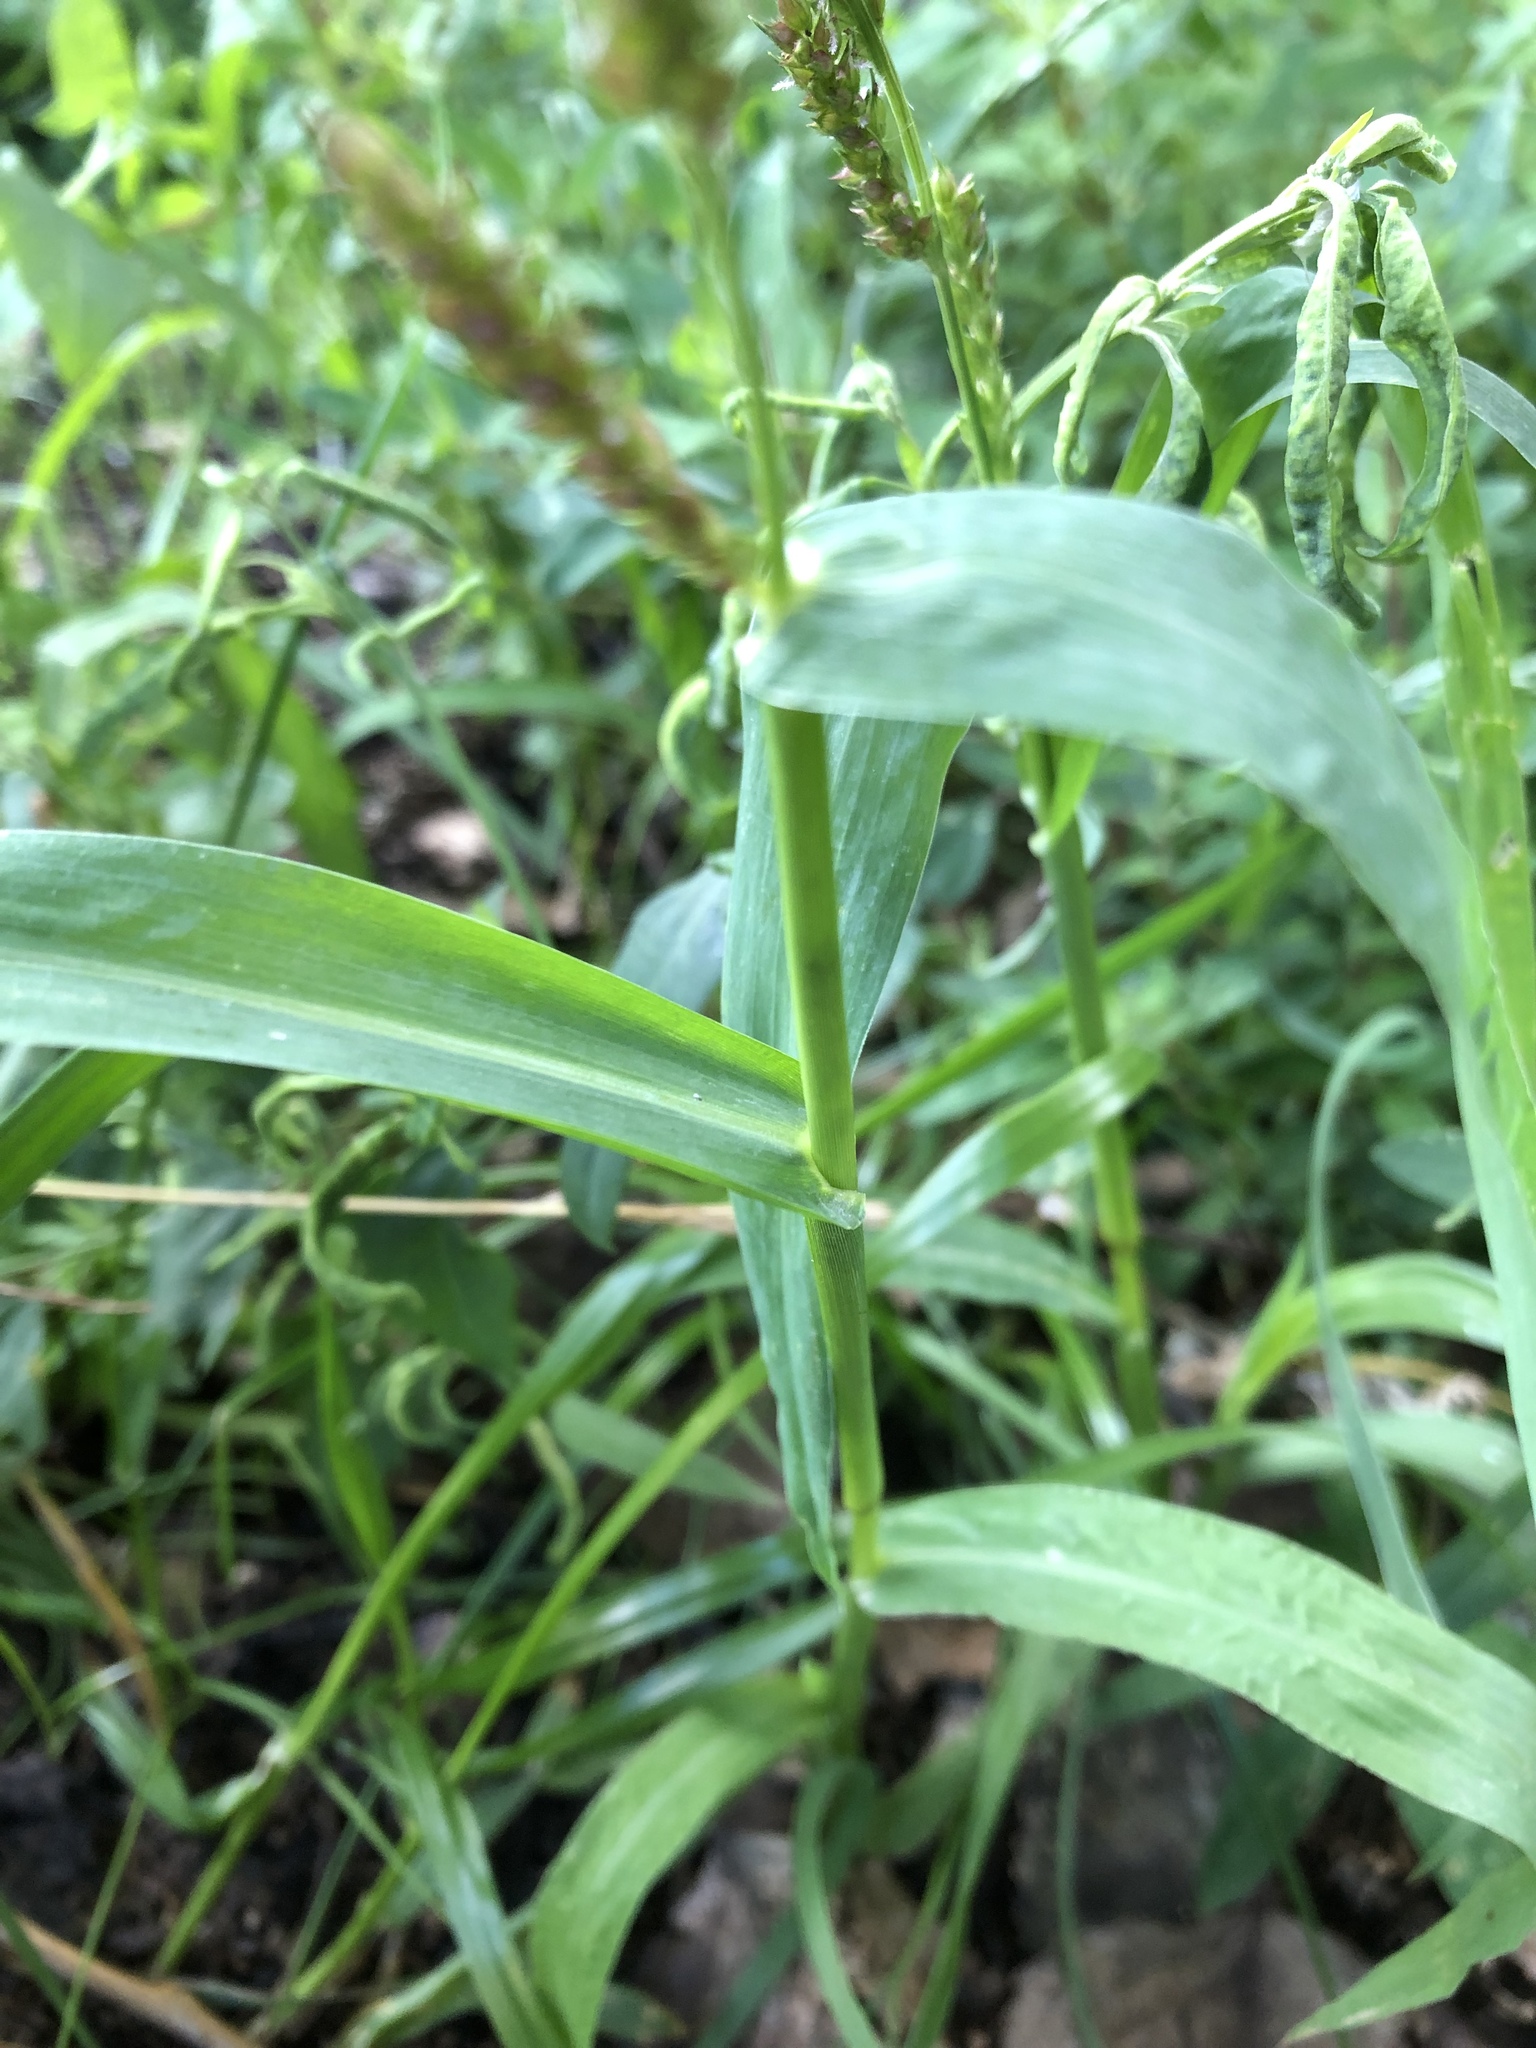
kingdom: Plantae
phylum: Tracheophyta
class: Liliopsida
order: Poales
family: Poaceae
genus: Echinochloa
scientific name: Echinochloa crus-galli
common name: Cockspur
